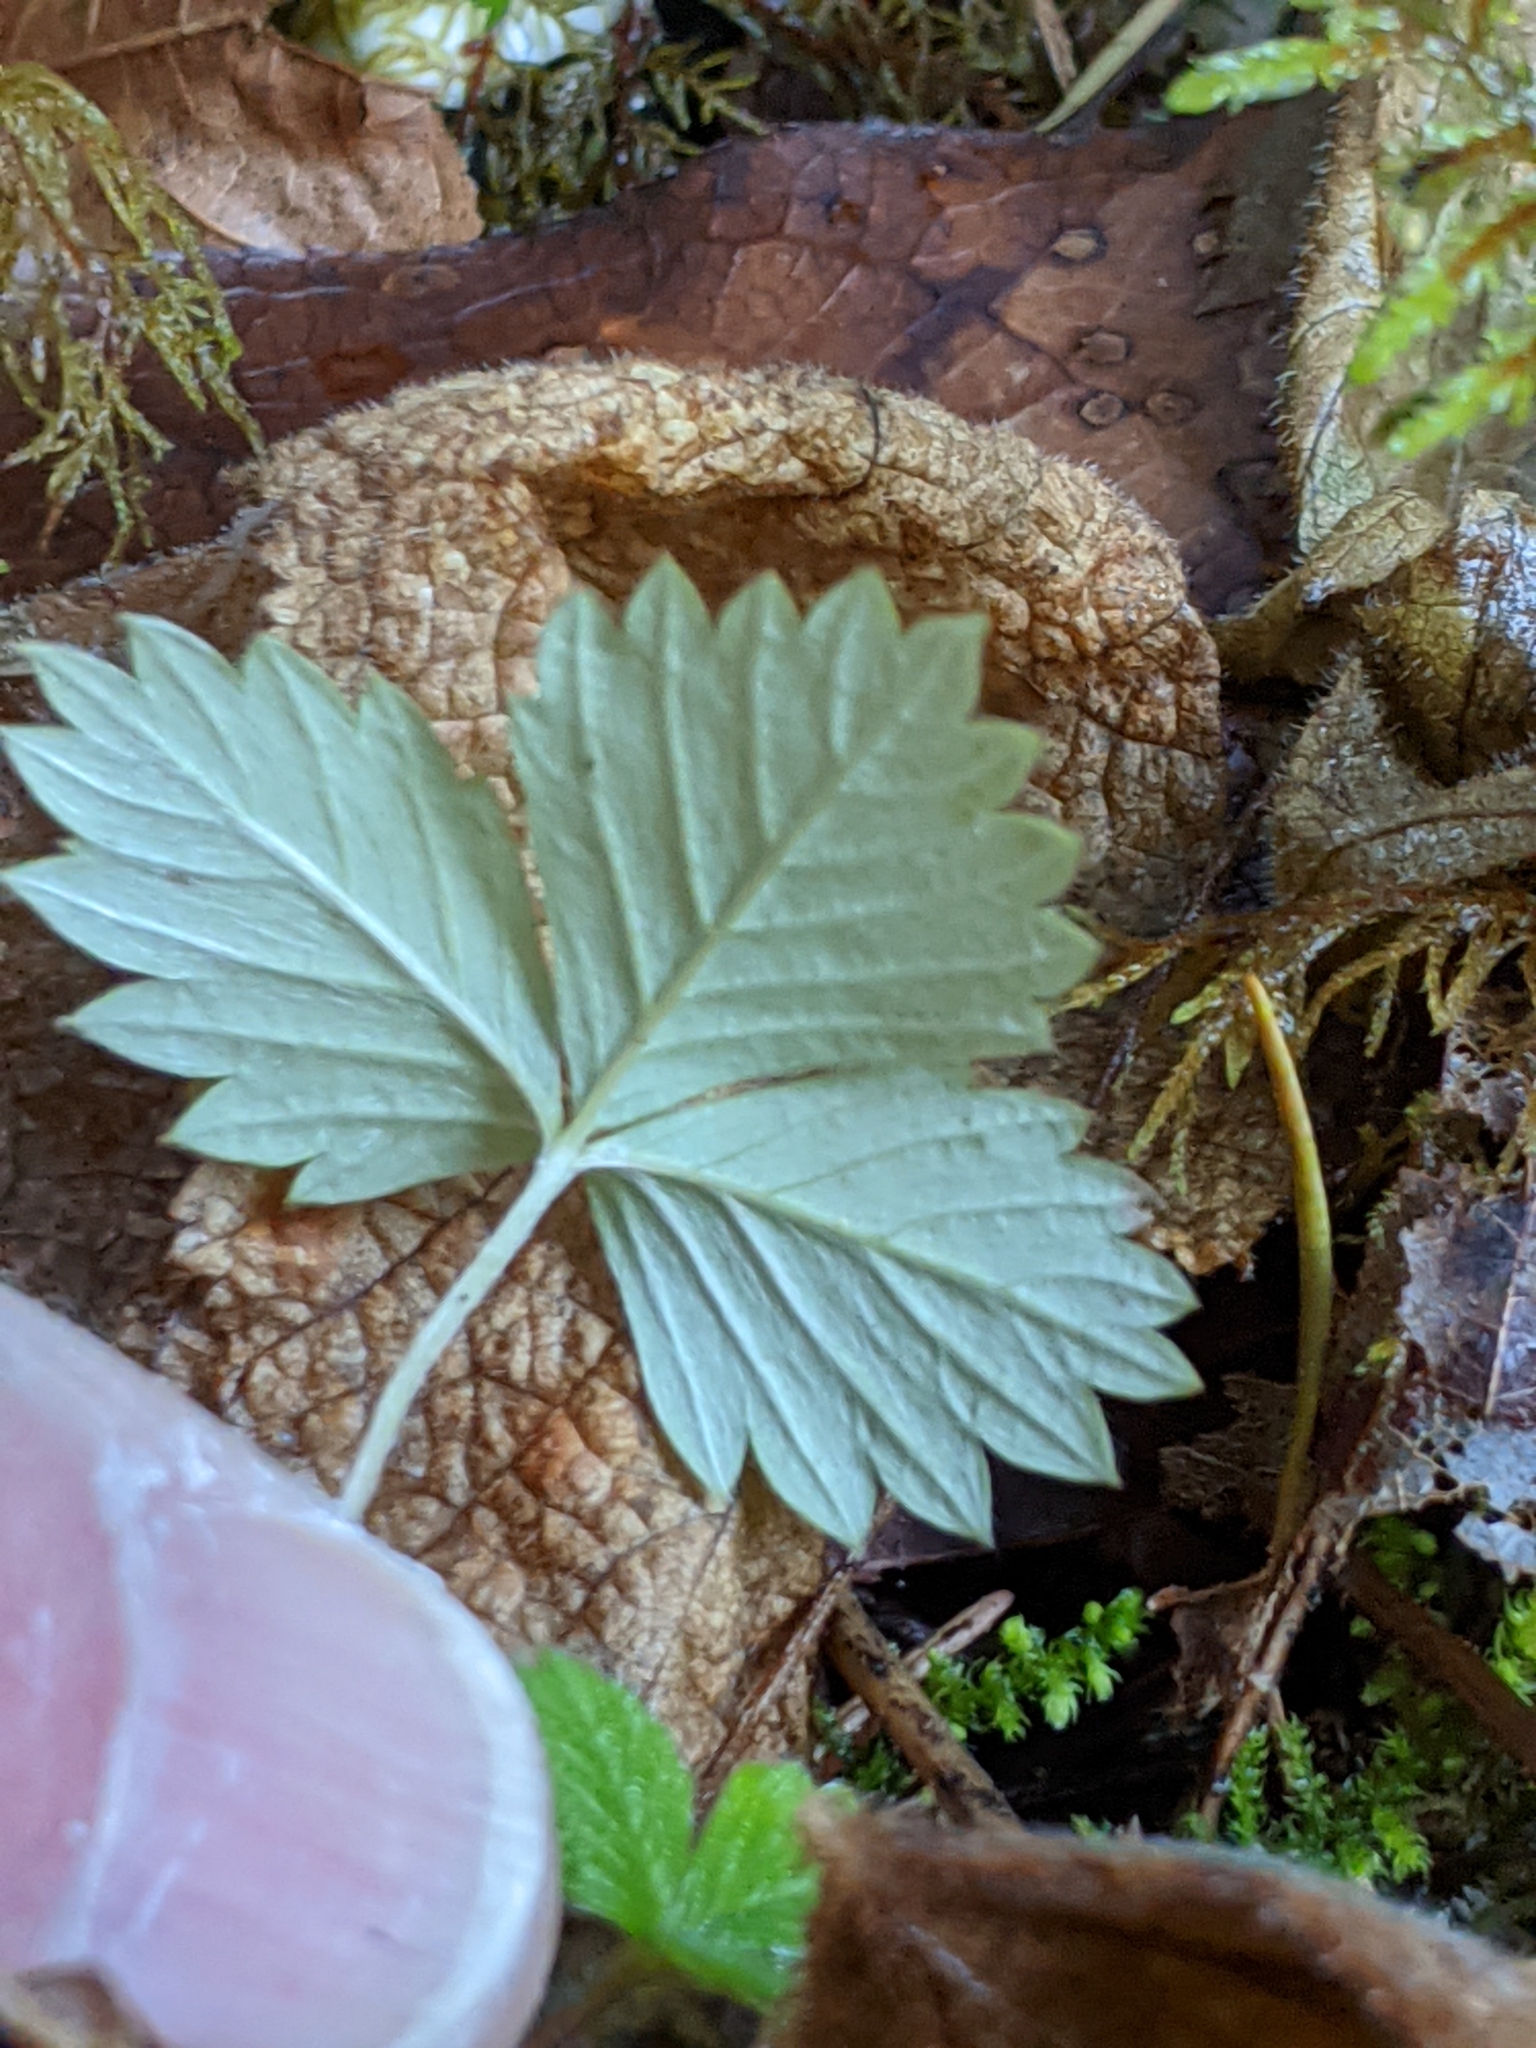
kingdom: Plantae
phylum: Tracheophyta
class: Magnoliopsida
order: Rosales
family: Rosaceae
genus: Fragaria
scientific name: Fragaria vesca
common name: Wild strawberry
